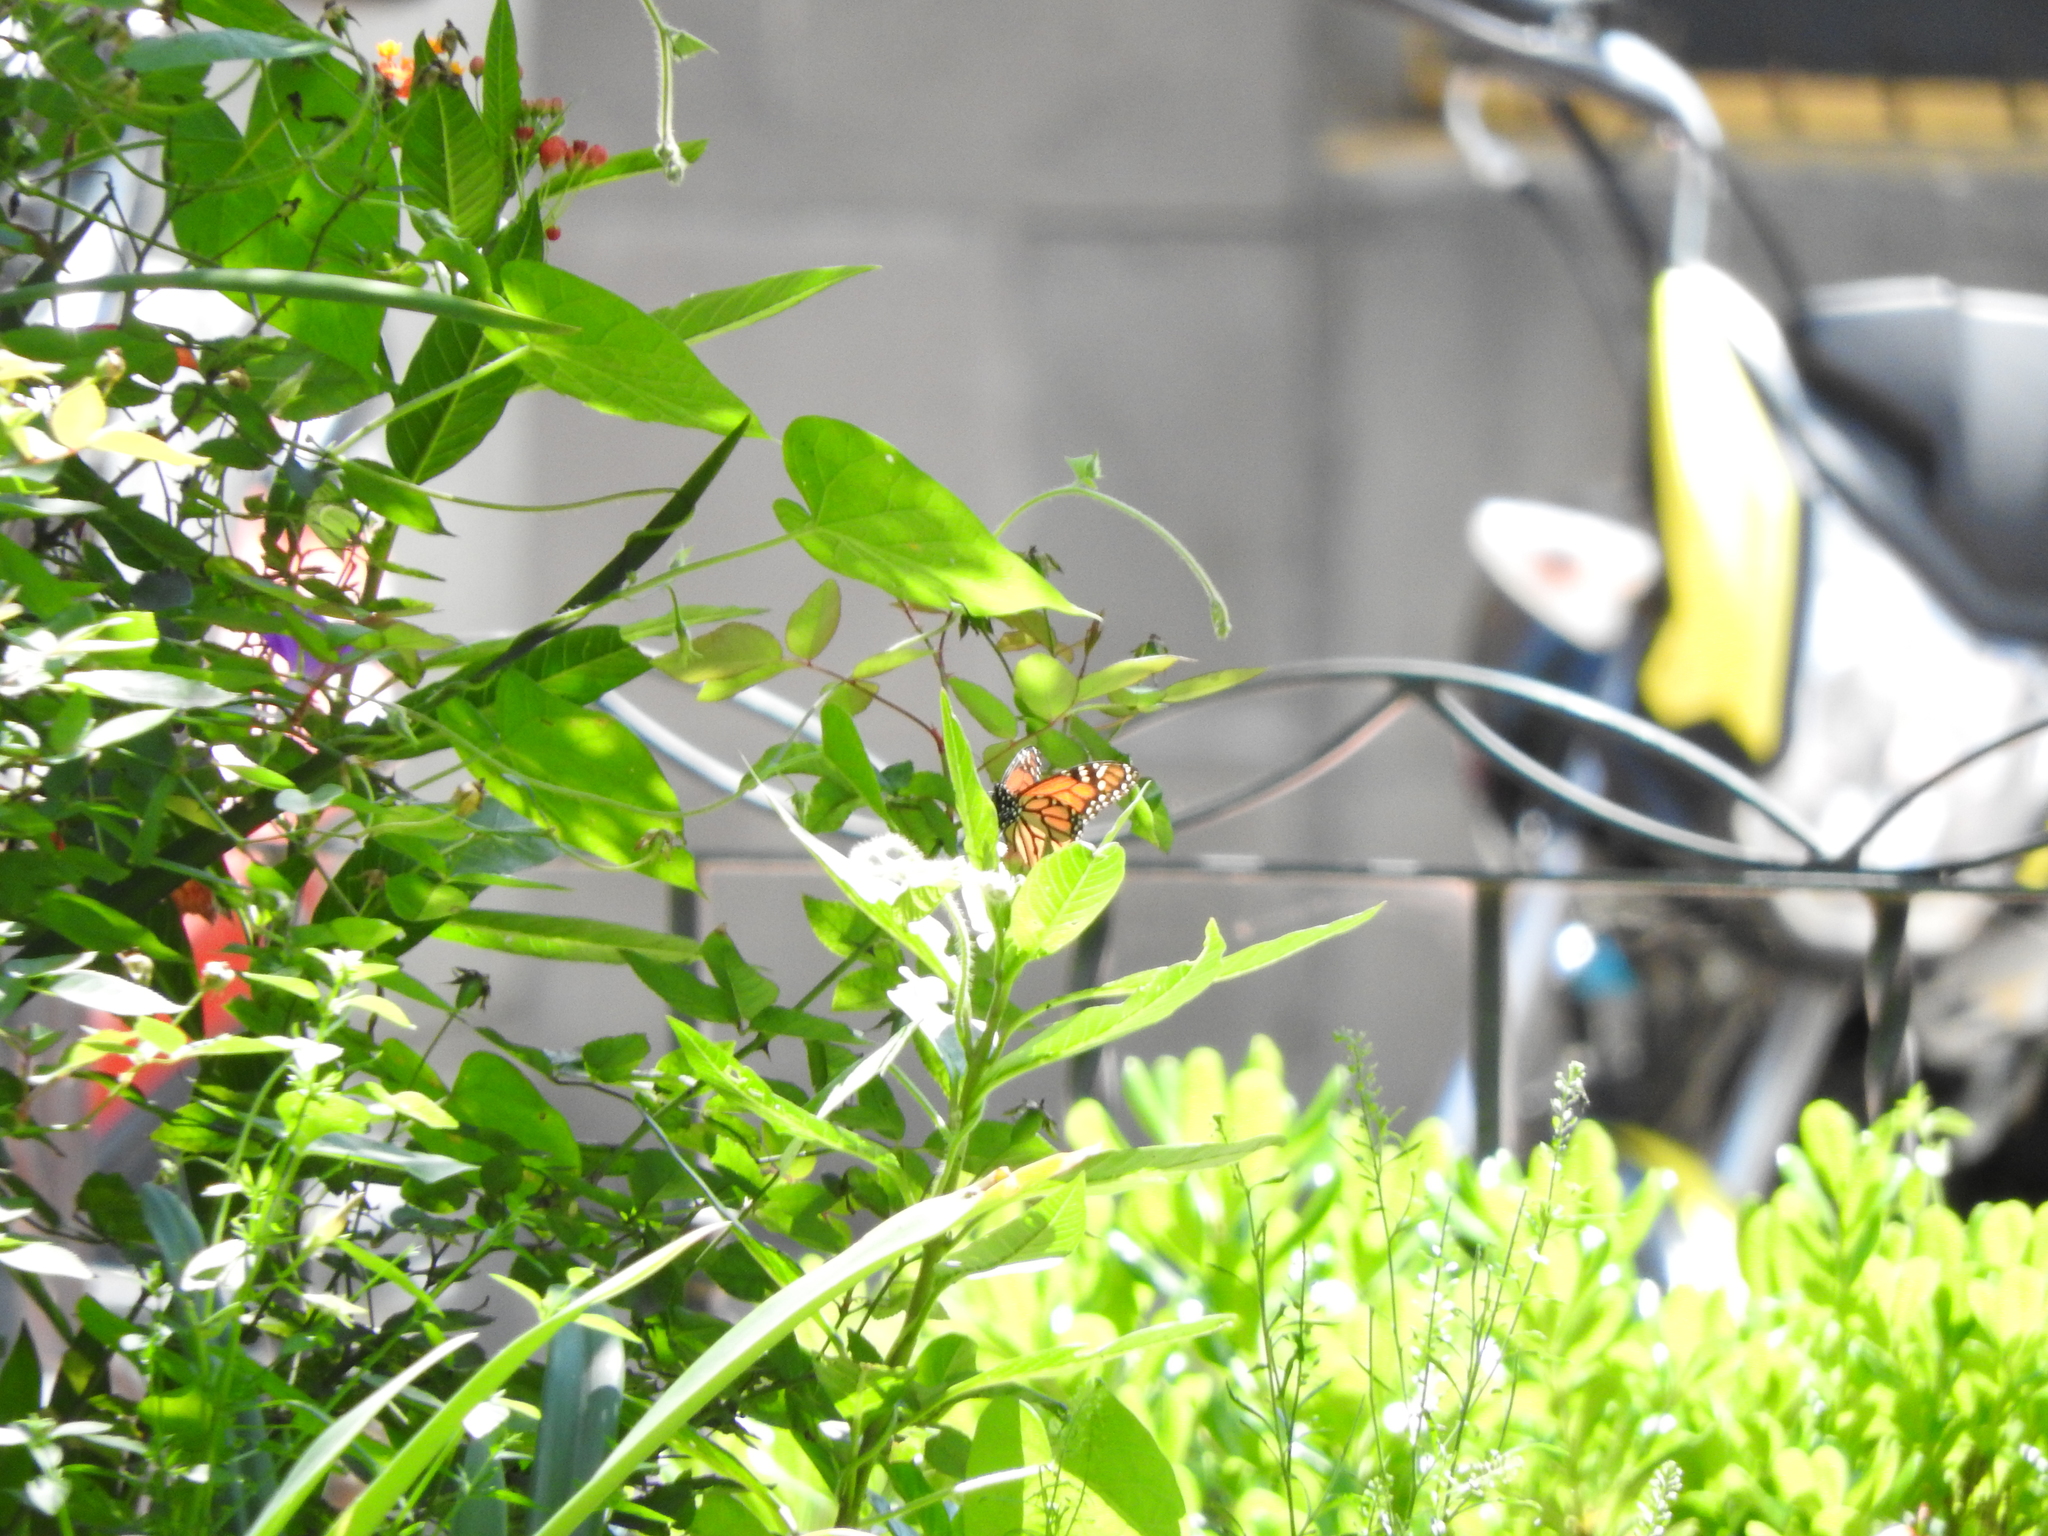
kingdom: Animalia
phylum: Arthropoda
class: Insecta
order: Lepidoptera
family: Nymphalidae
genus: Danaus
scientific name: Danaus plexippus
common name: Monarch
